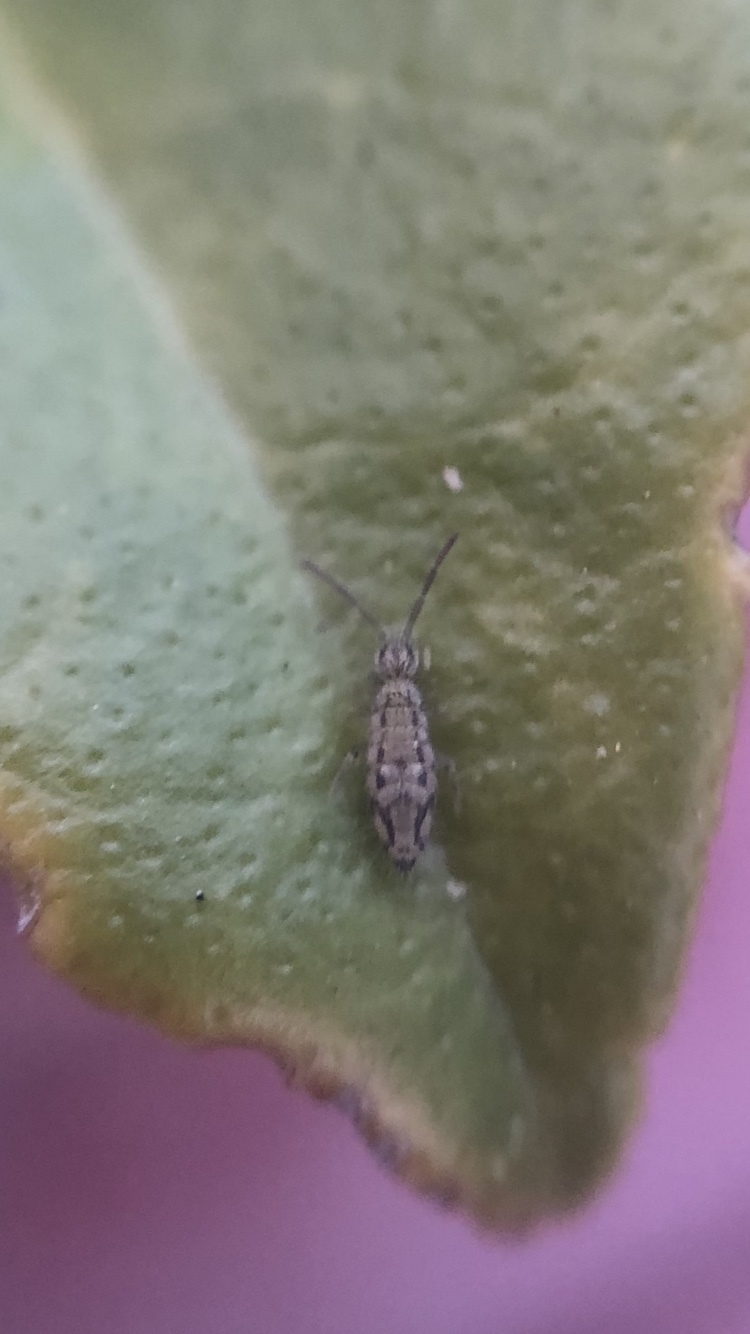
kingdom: Animalia
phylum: Arthropoda
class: Collembola
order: Entomobryomorpha
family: Entomobryidae
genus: Entomobrya
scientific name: Entomobrya intermedia
